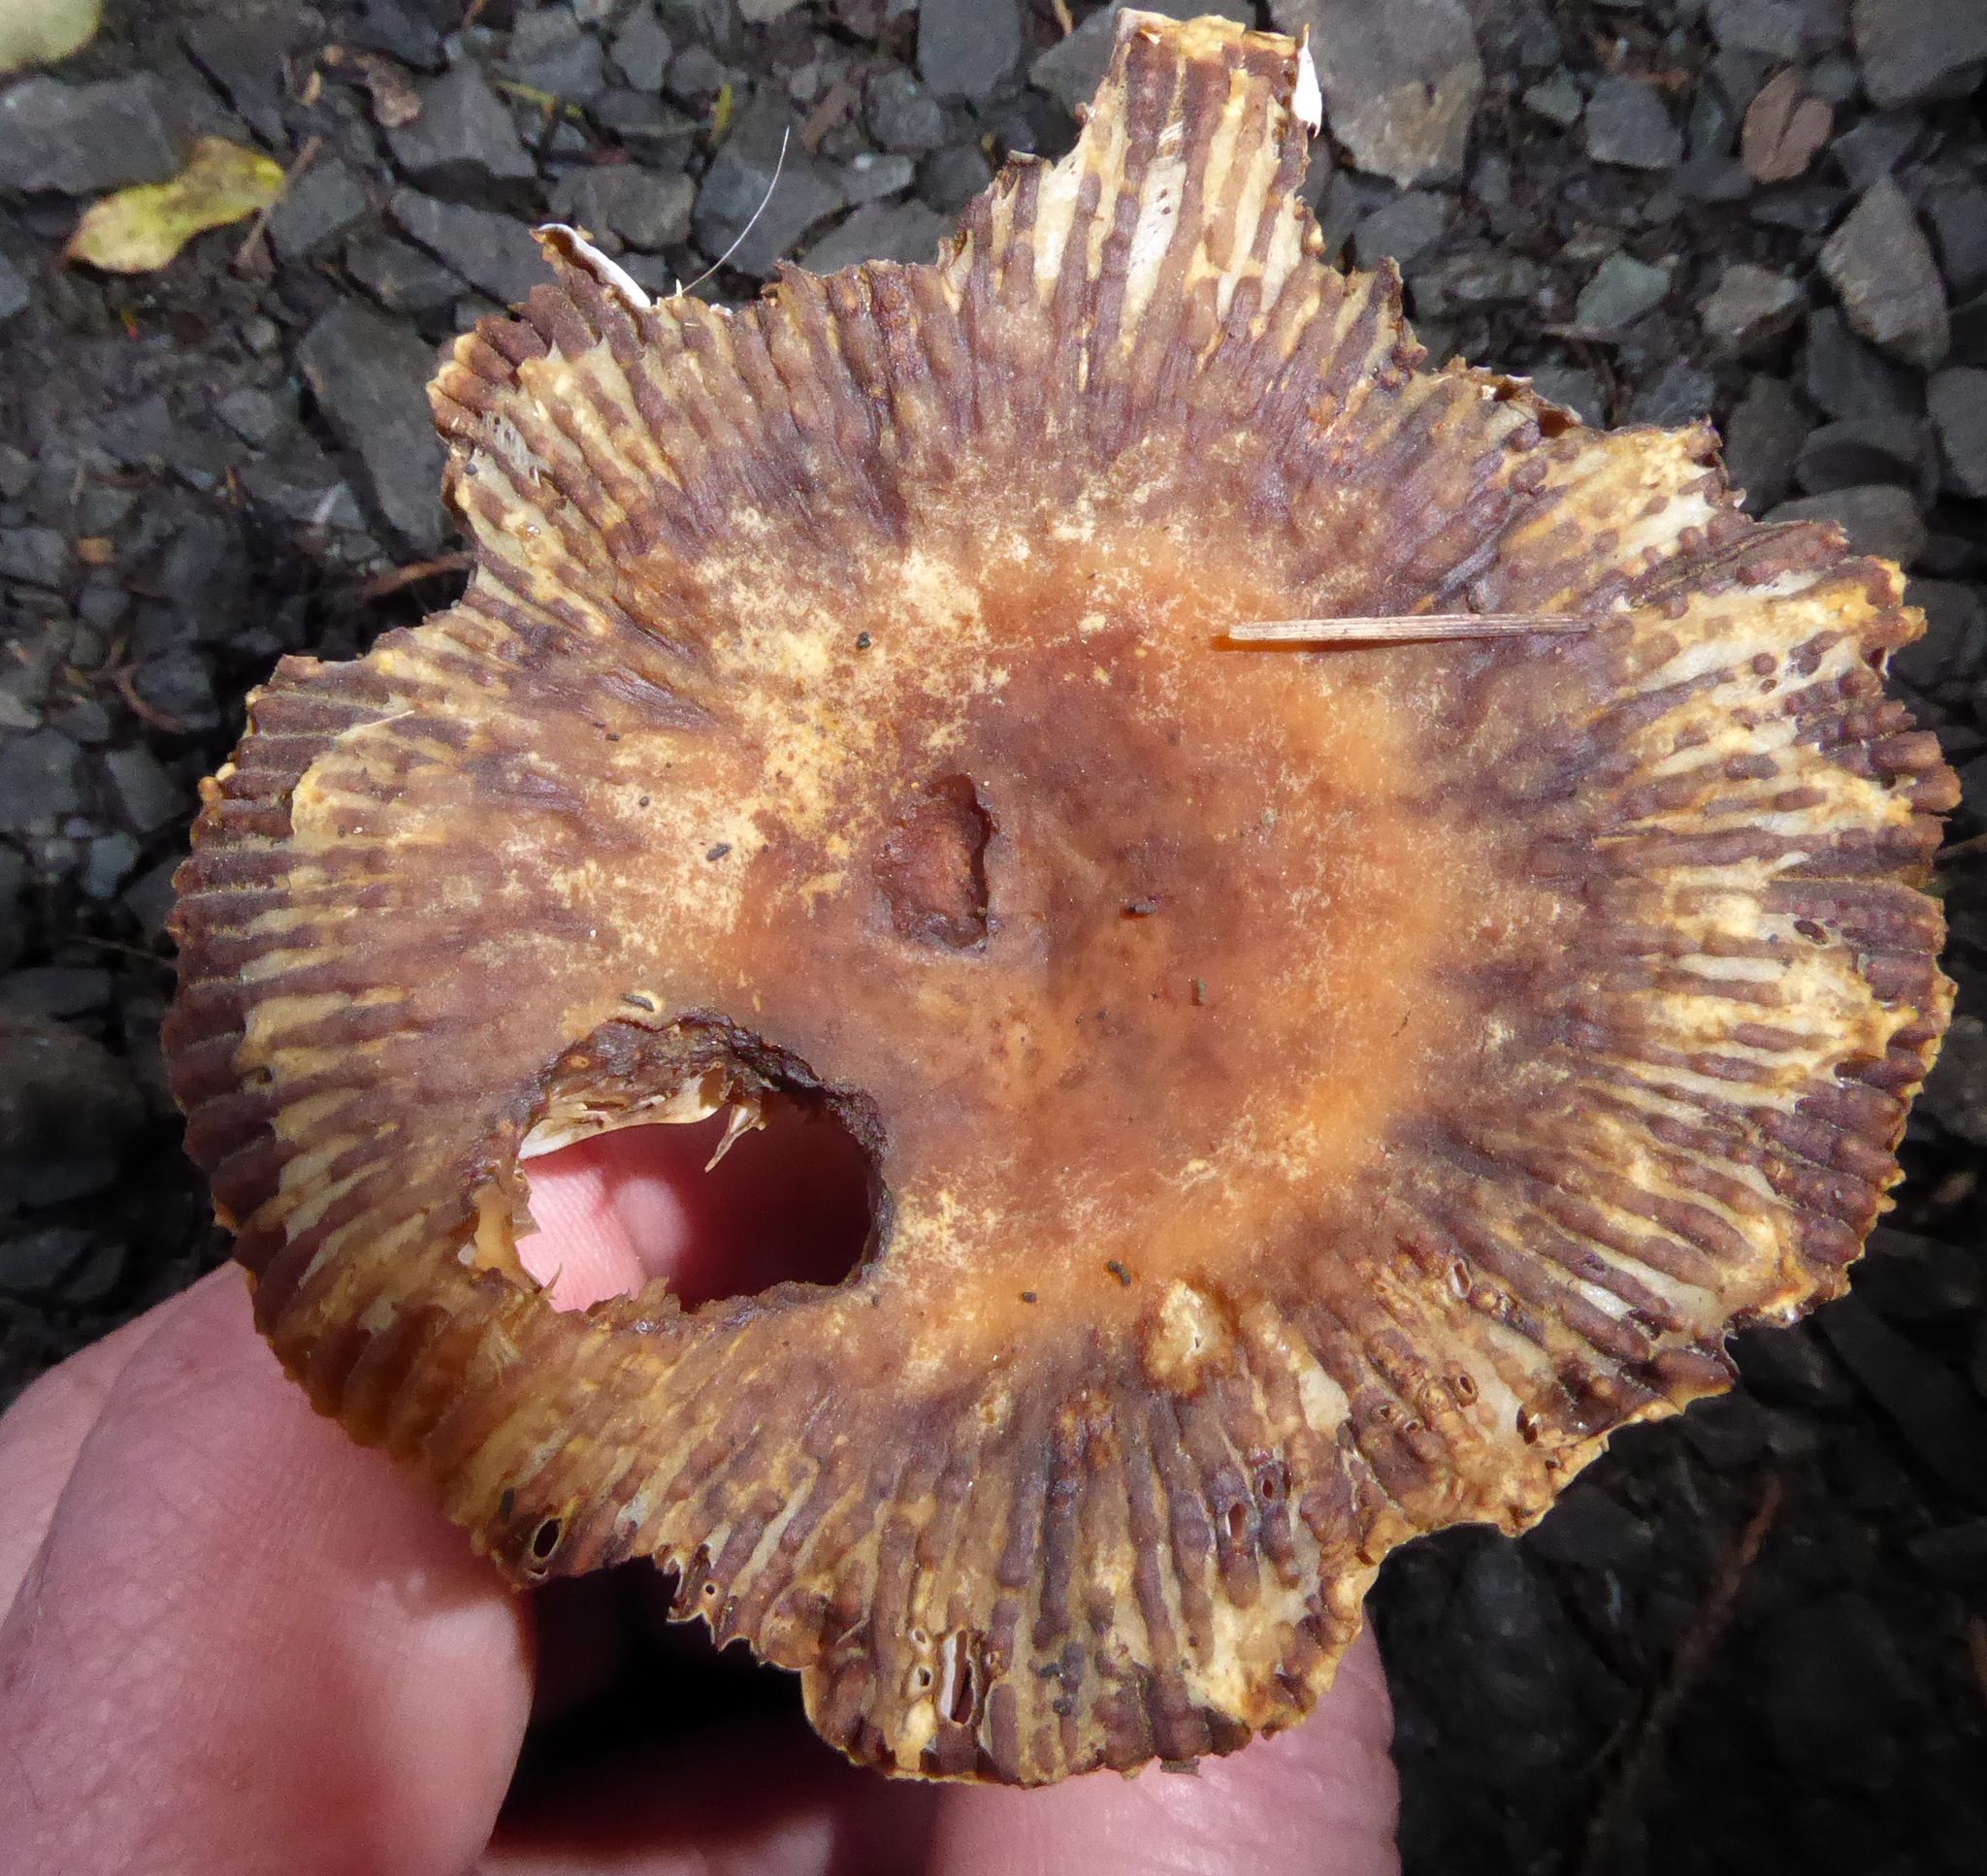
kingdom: Fungi
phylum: Basidiomycota
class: Agaricomycetes
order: Russulales
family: Russulaceae
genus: Russula
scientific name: Russula acrolamellata
